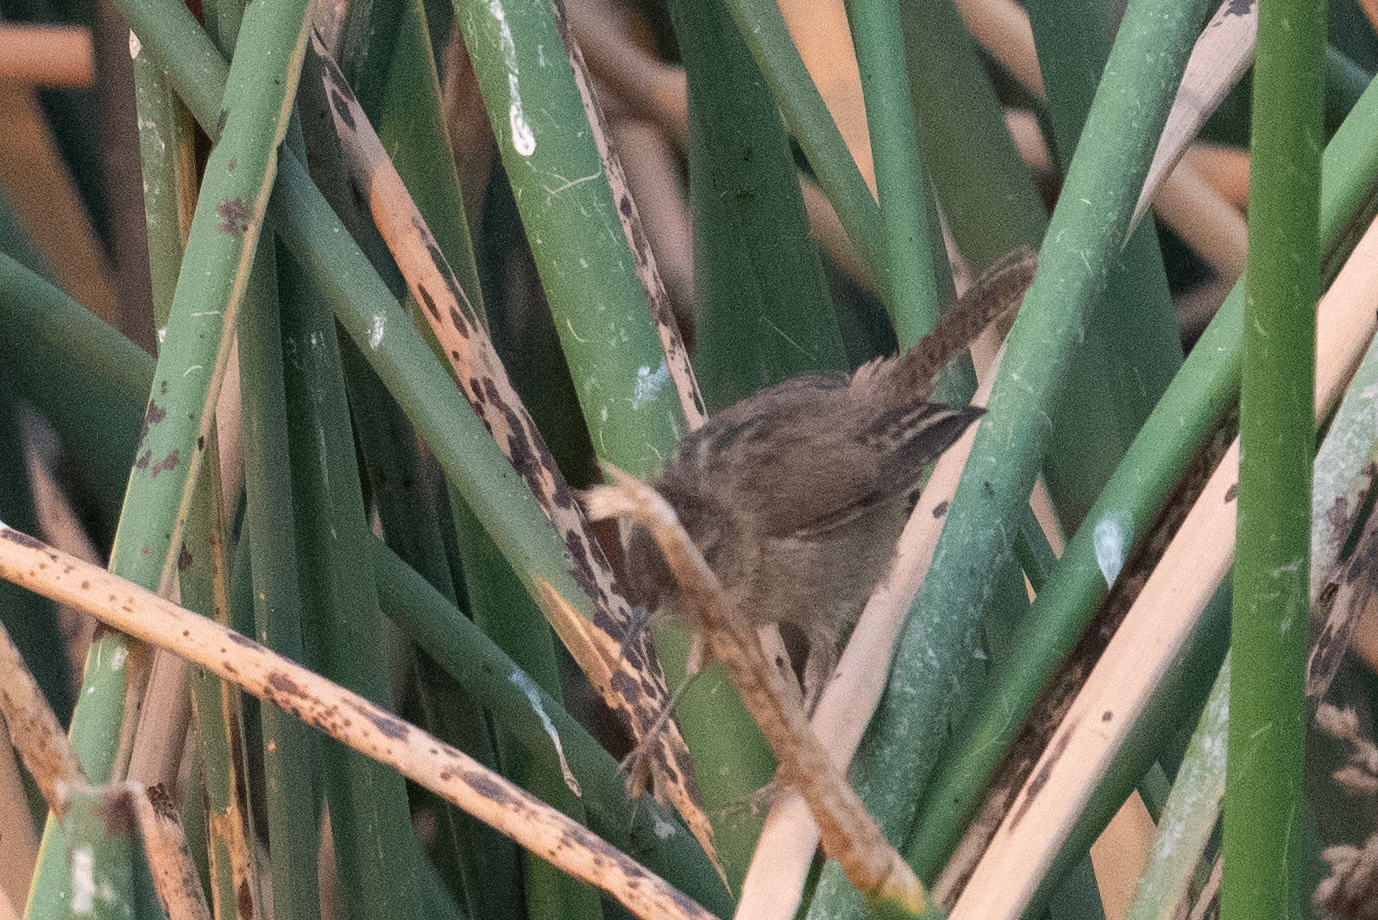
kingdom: Animalia
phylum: Chordata
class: Aves
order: Passeriformes
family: Troglodytidae
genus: Cistothorus
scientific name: Cistothorus palustris
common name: Marsh wren
